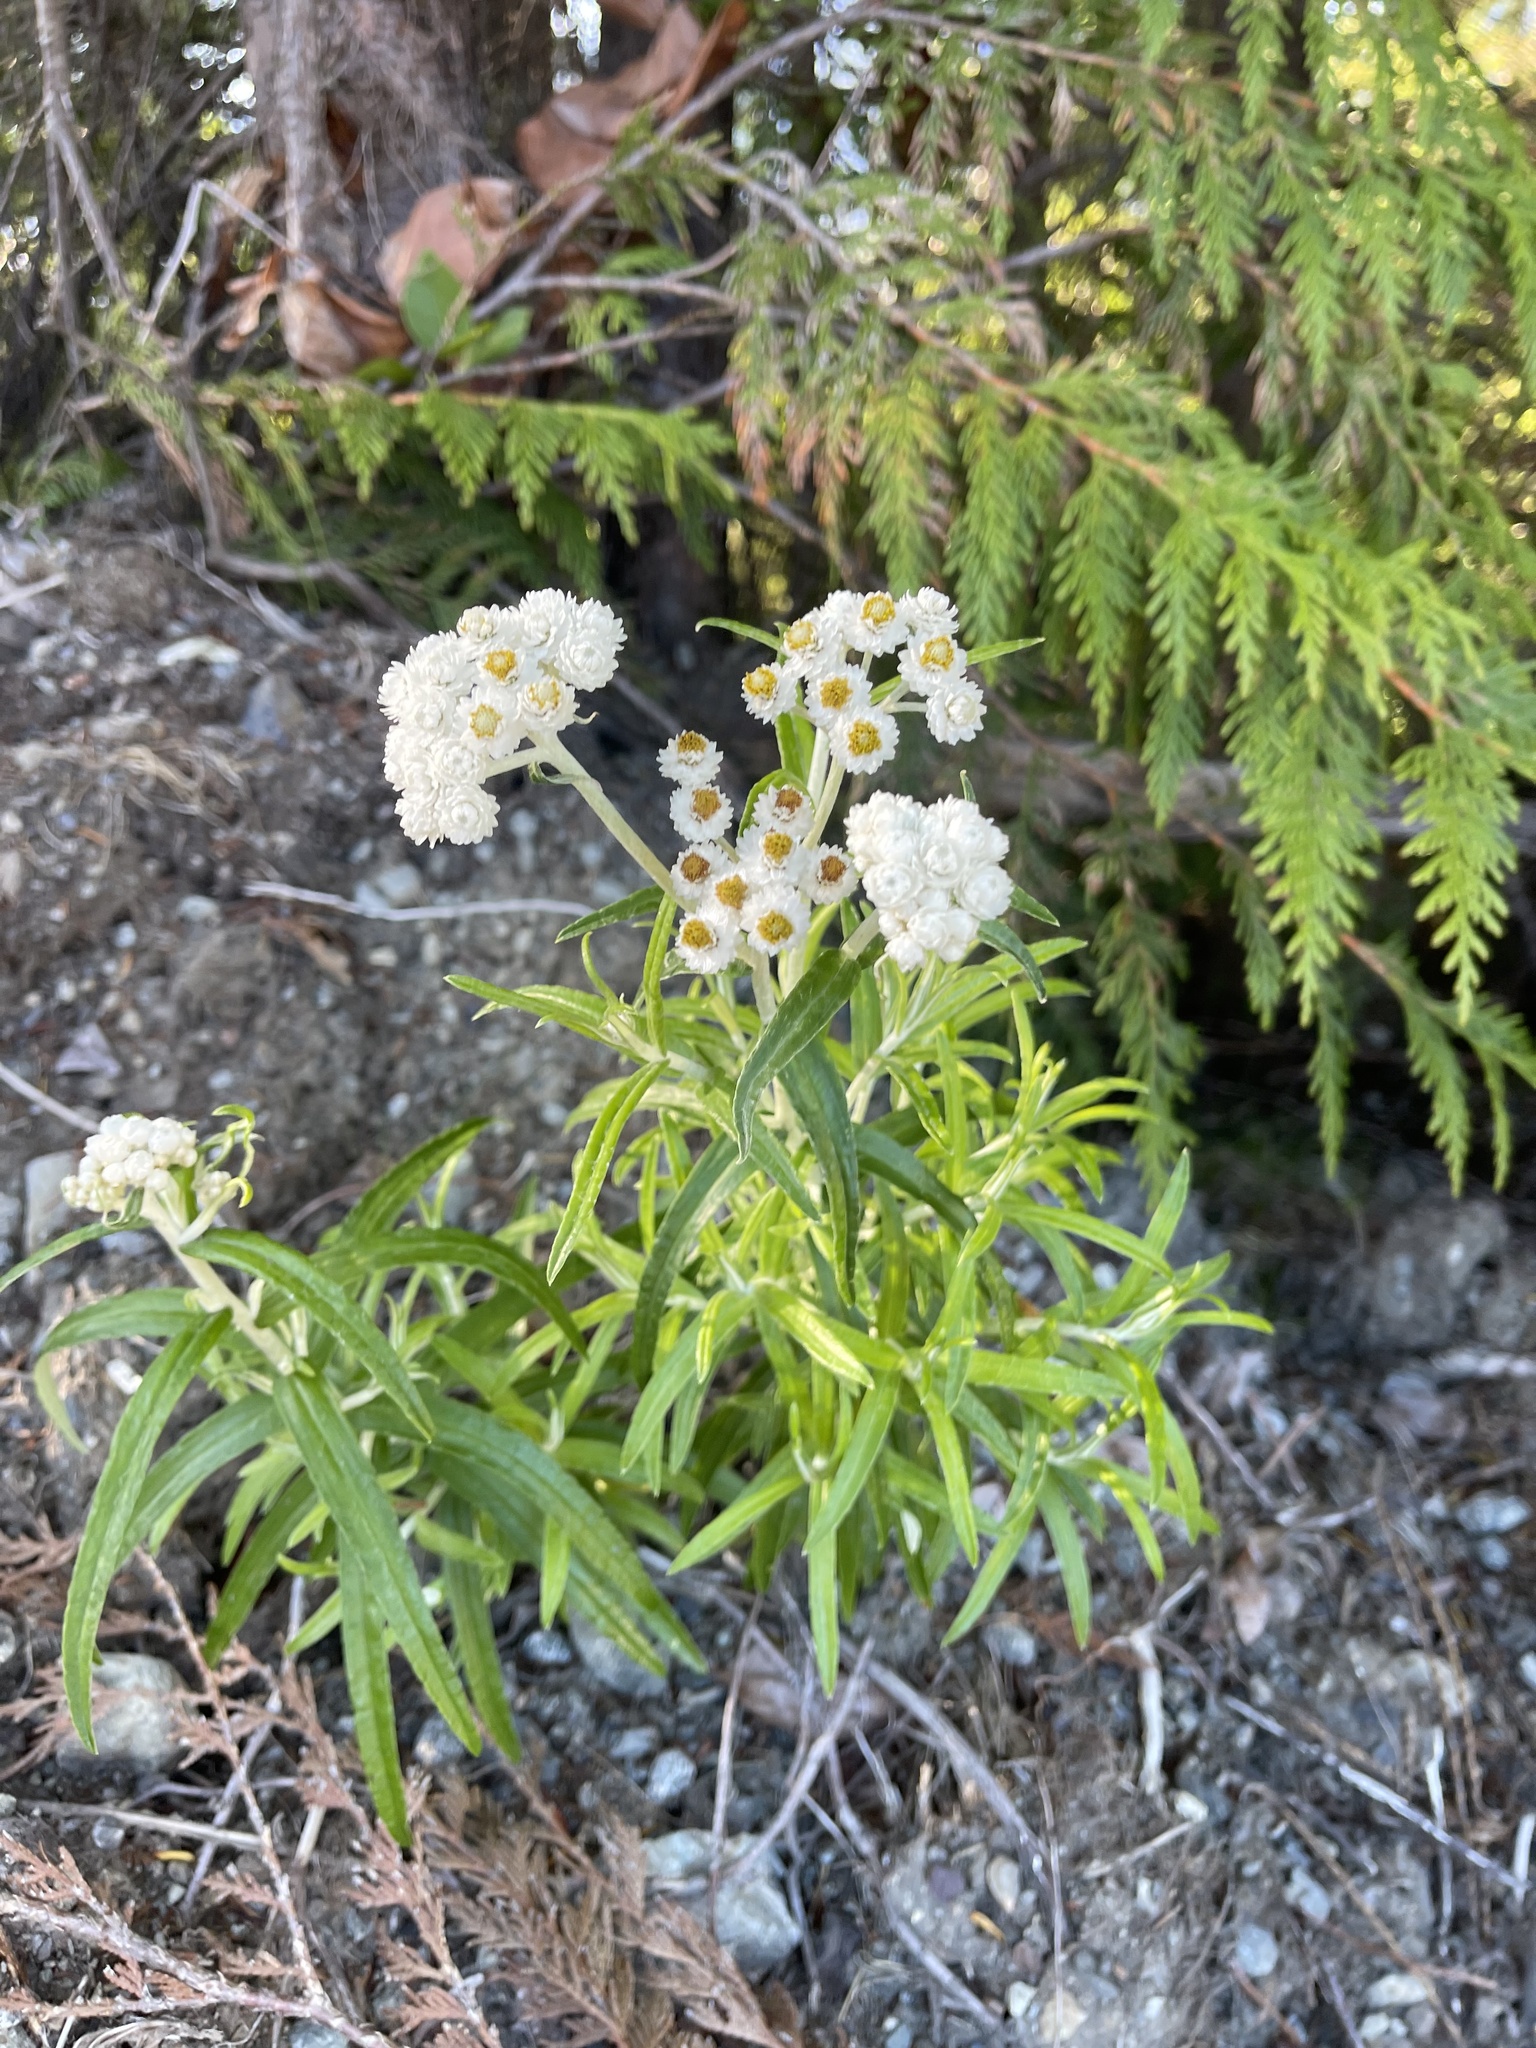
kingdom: Plantae
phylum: Tracheophyta
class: Magnoliopsida
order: Asterales
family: Asteraceae
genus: Anaphalis
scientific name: Anaphalis margaritacea
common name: Pearly everlasting
